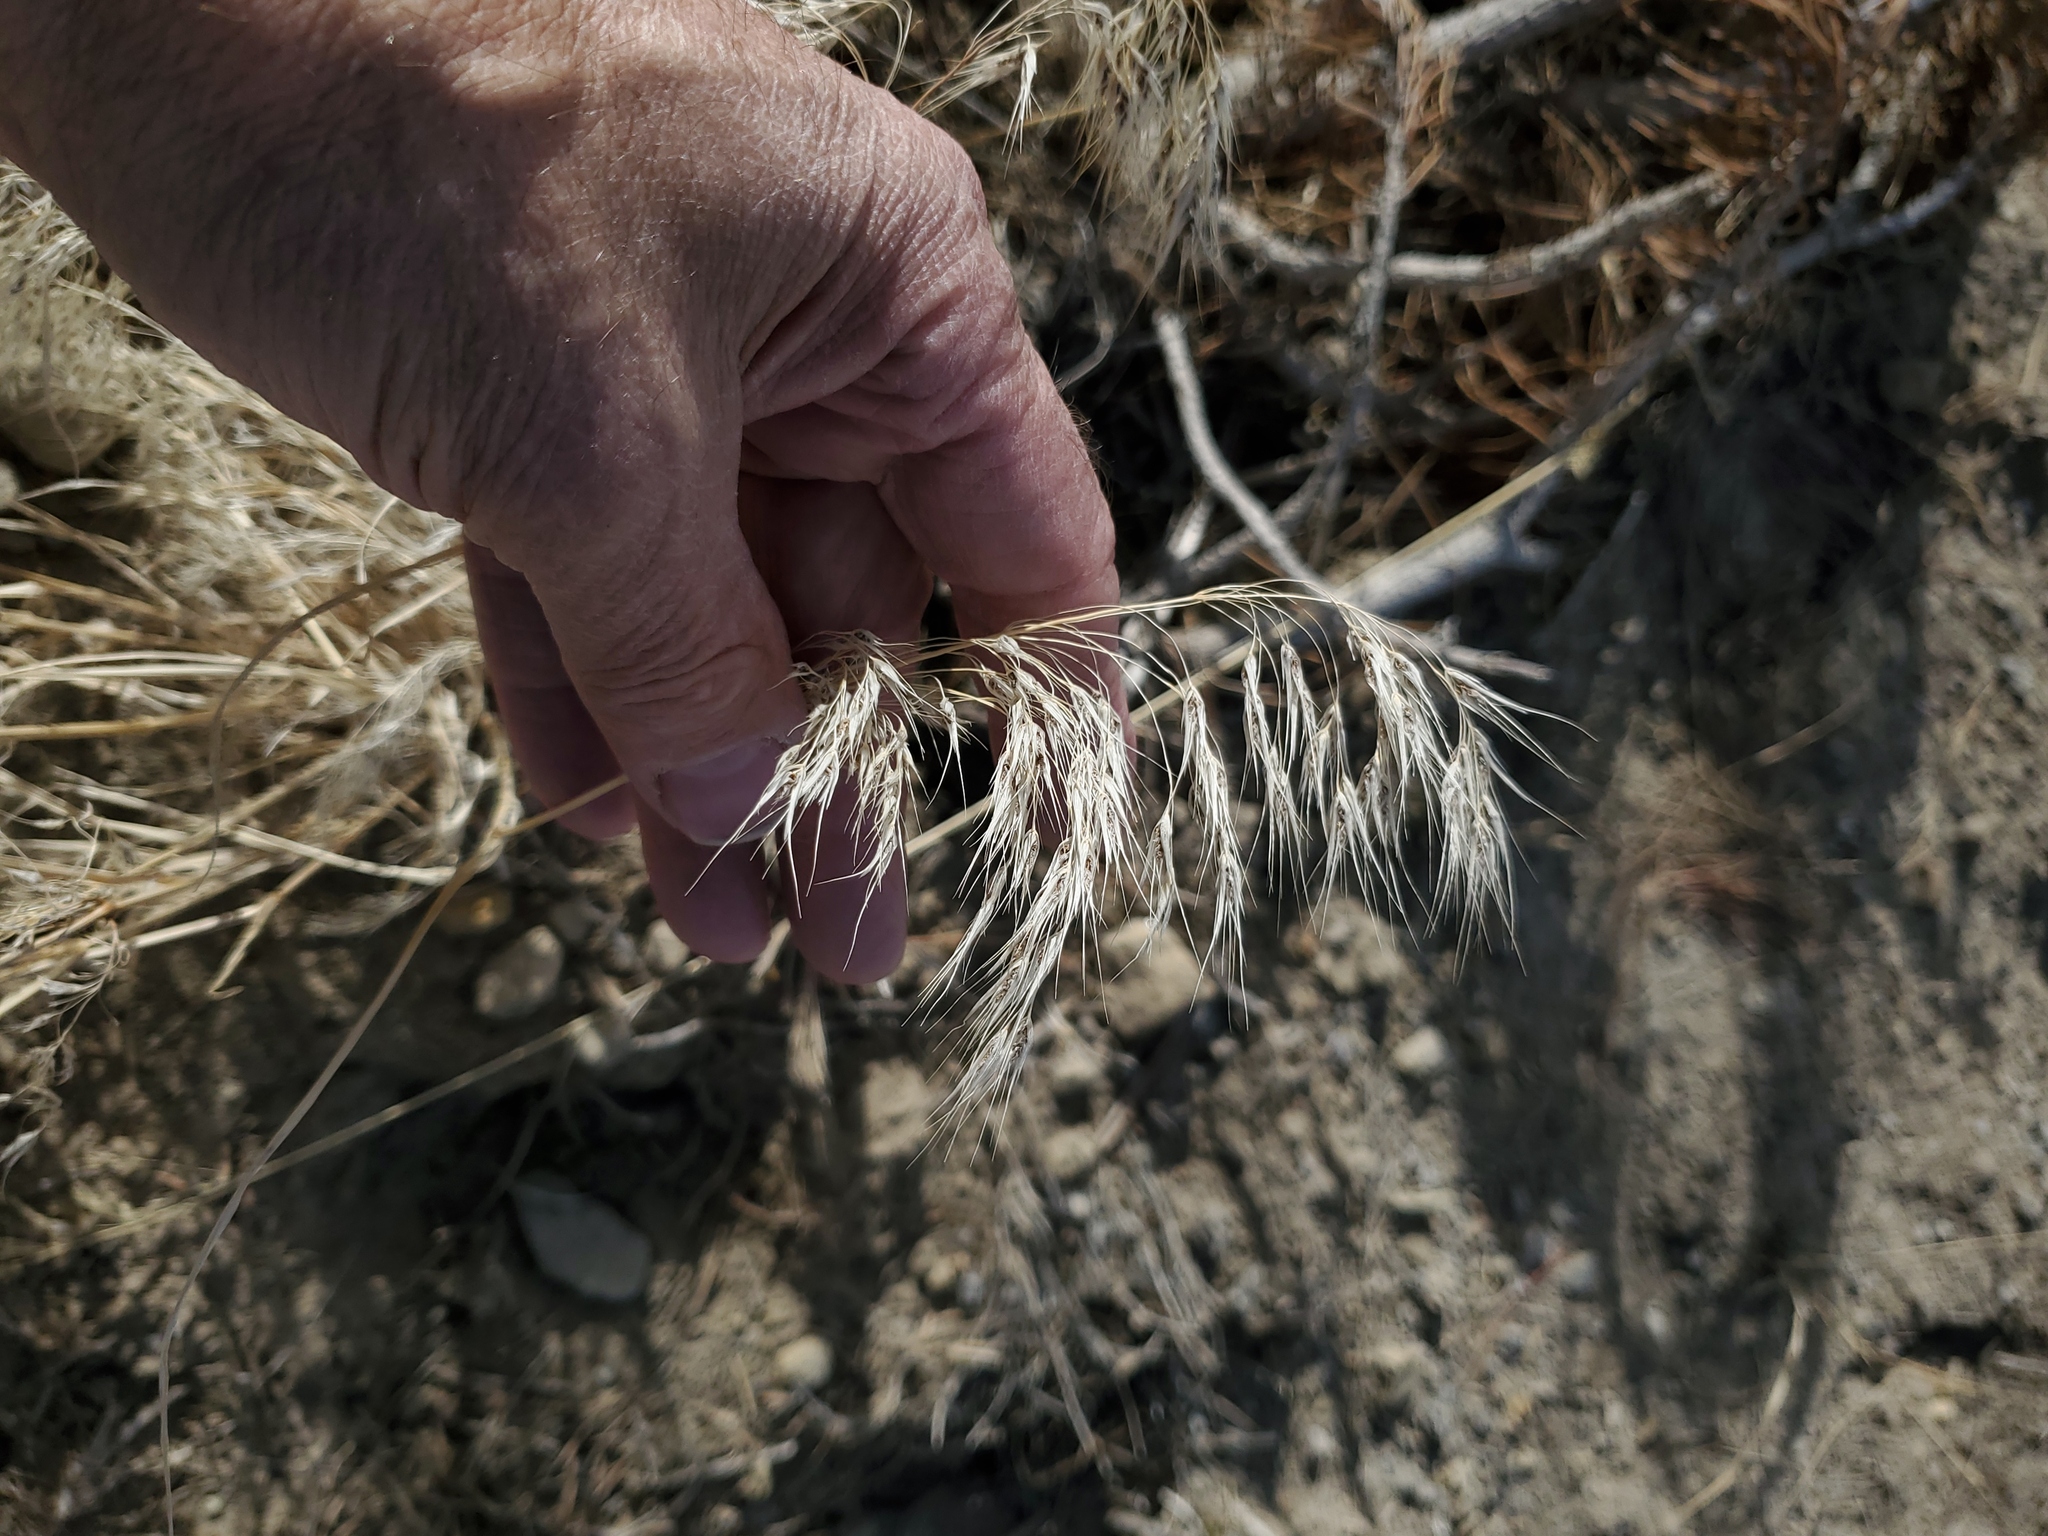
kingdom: Plantae
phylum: Tracheophyta
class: Liliopsida
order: Poales
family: Poaceae
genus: Bromus
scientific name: Bromus tectorum
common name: Cheatgrass
